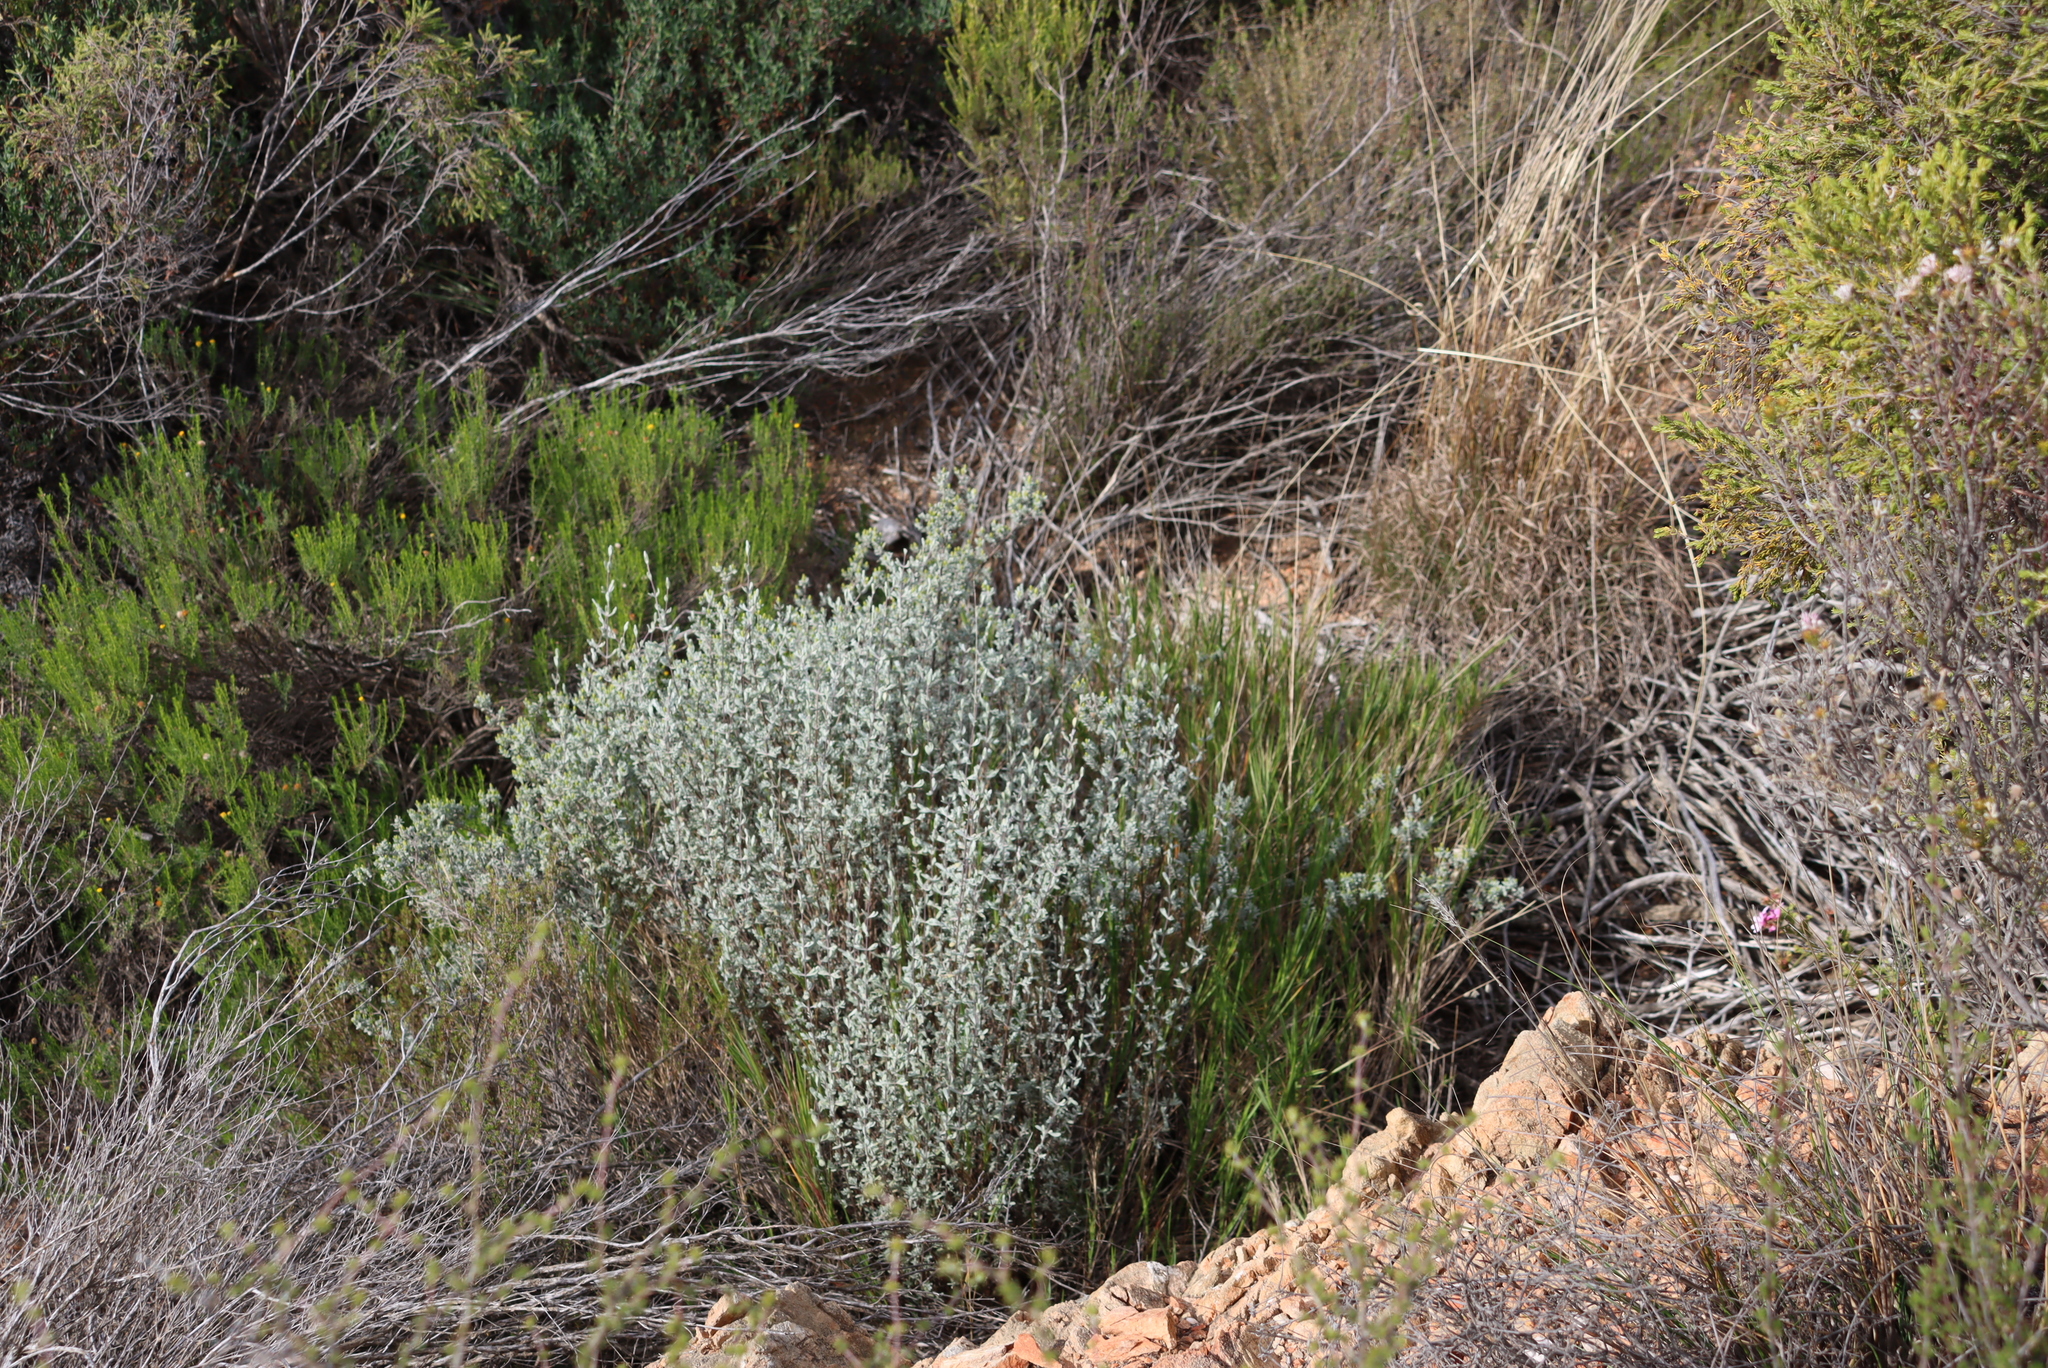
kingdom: Plantae
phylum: Tracheophyta
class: Magnoliopsida
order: Asterales
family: Asteraceae
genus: Pteronia
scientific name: Pteronia incana
